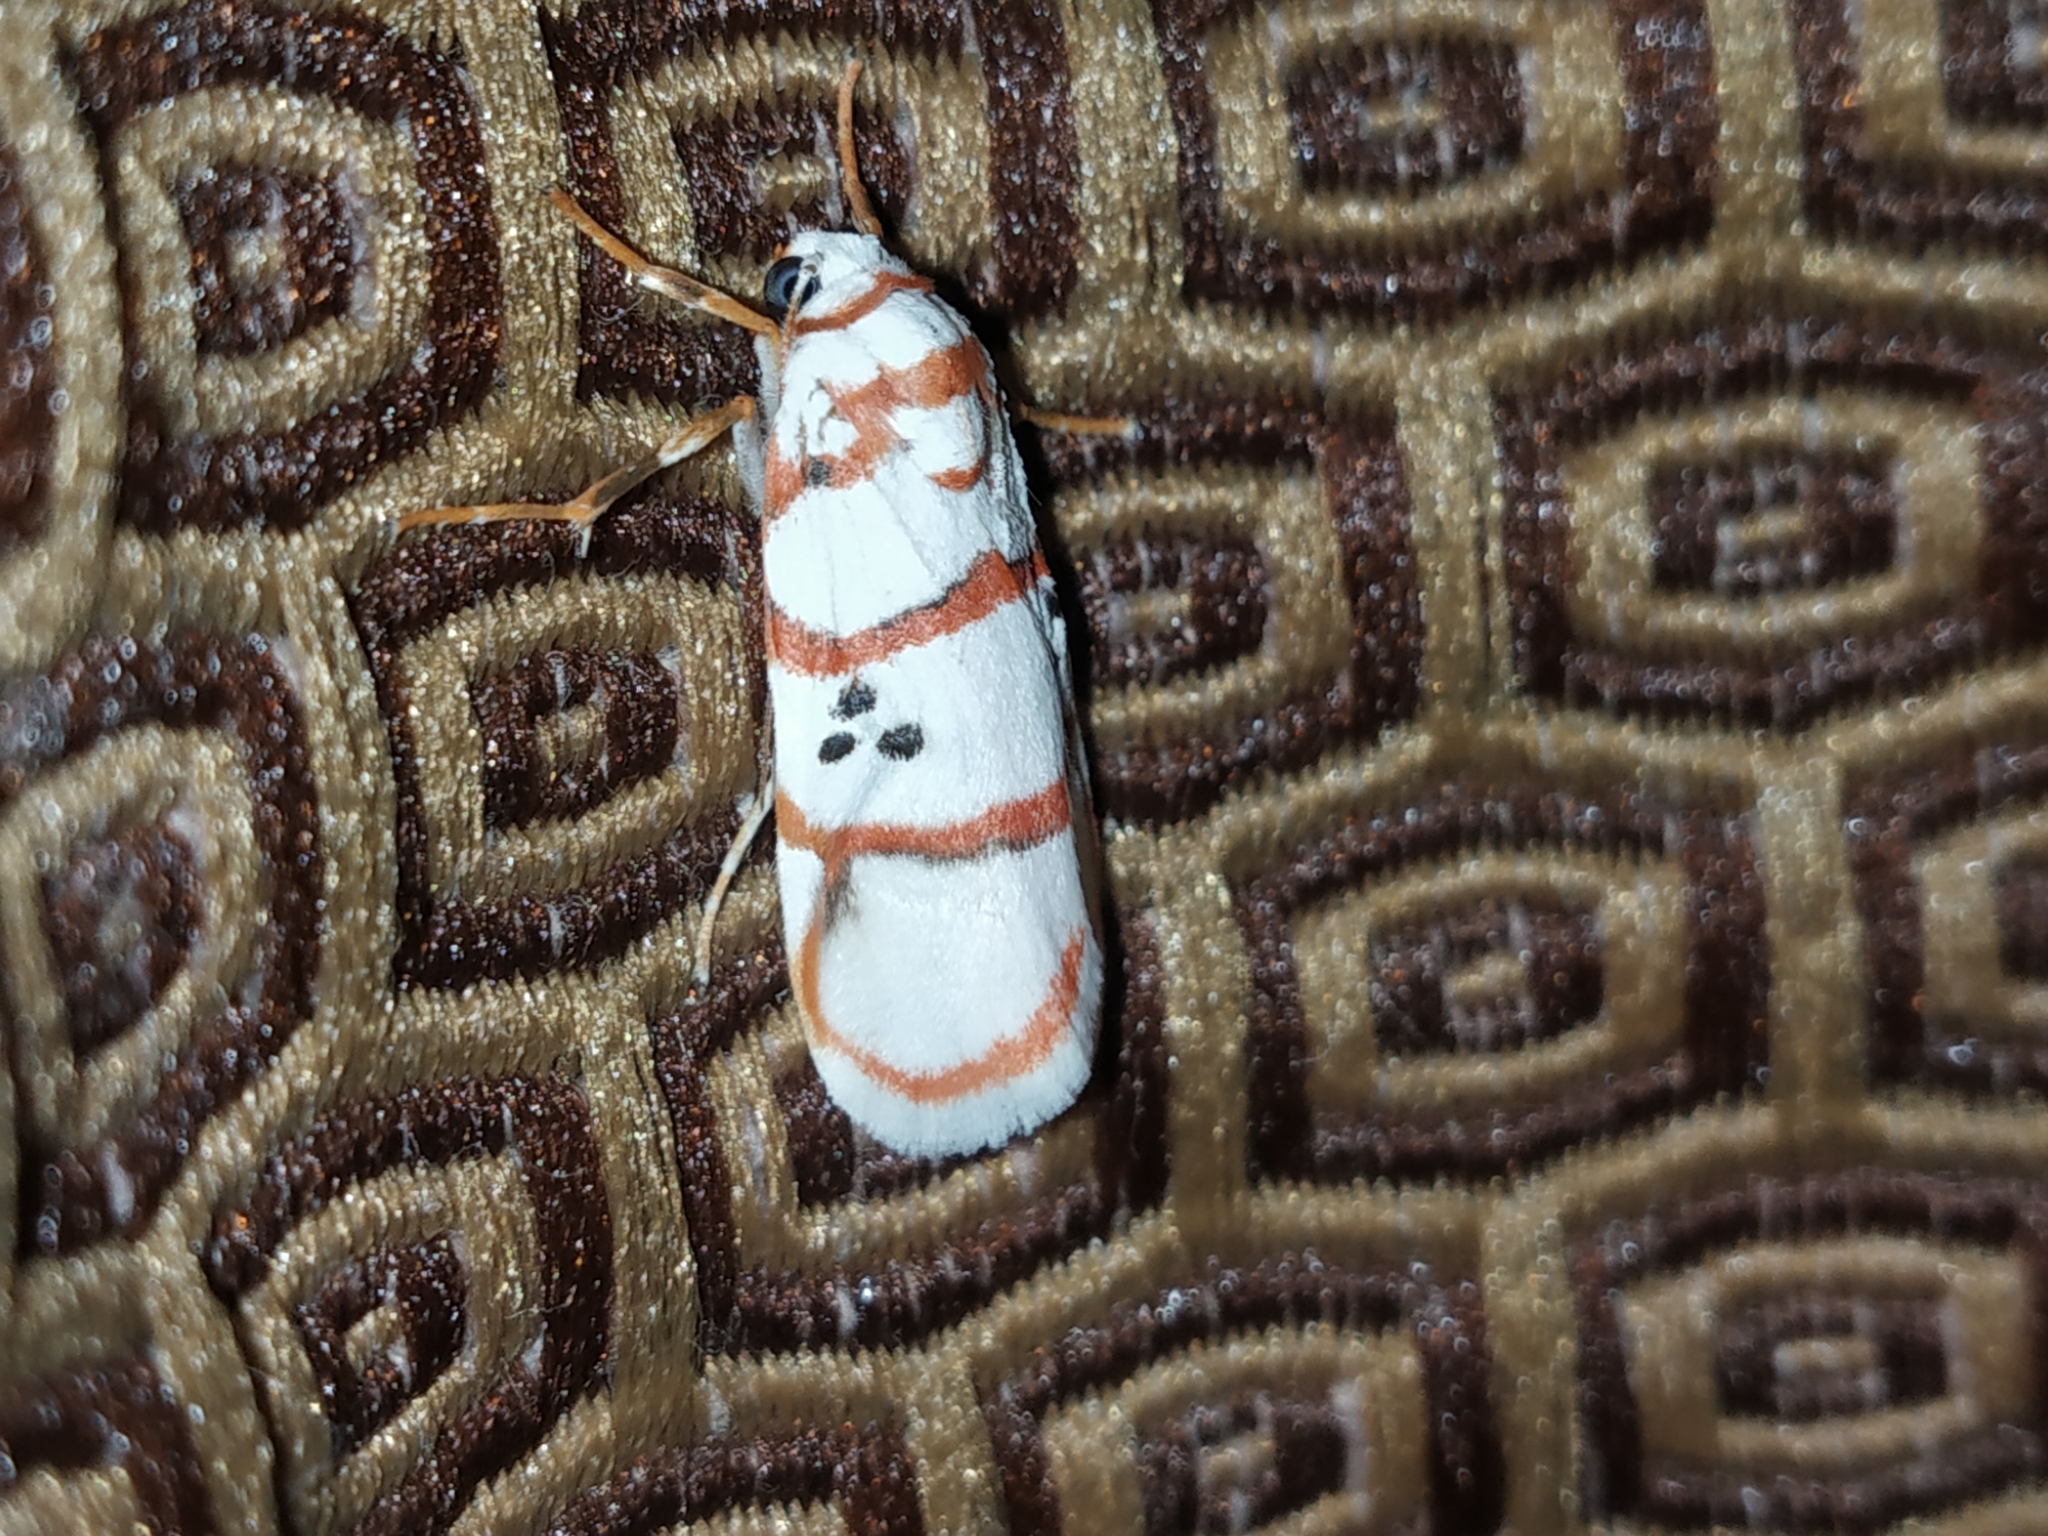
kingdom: Animalia
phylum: Arthropoda
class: Insecta
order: Lepidoptera
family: Erebidae
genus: Cyana
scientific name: Cyana peregrina
